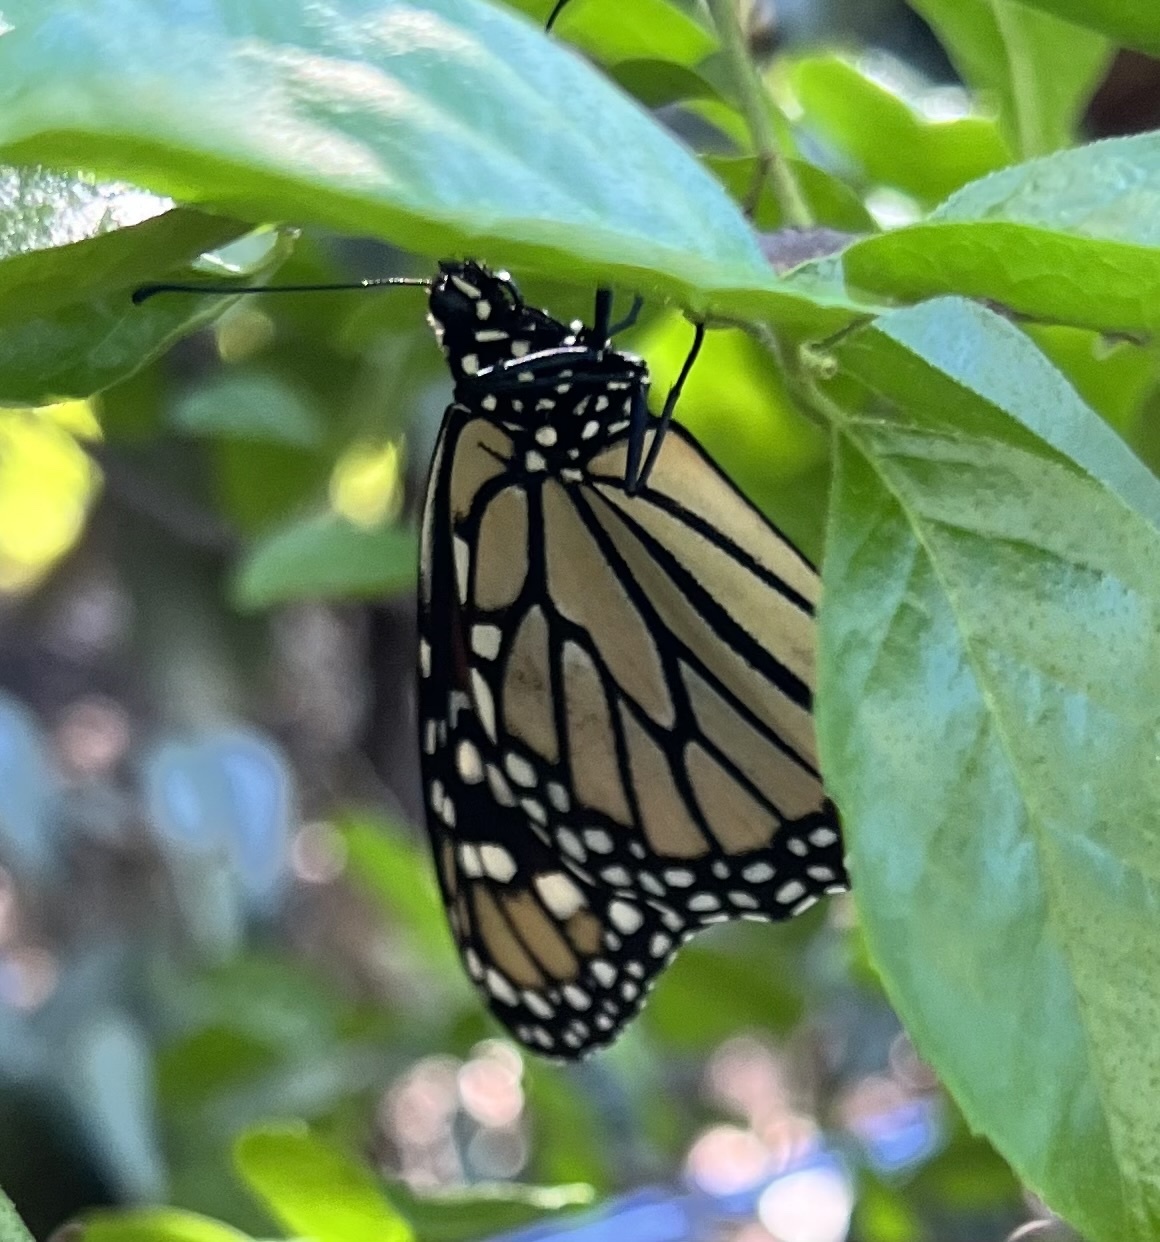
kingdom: Animalia
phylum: Arthropoda
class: Insecta
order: Lepidoptera
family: Nymphalidae
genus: Danaus
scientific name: Danaus plexippus
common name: Monarch
